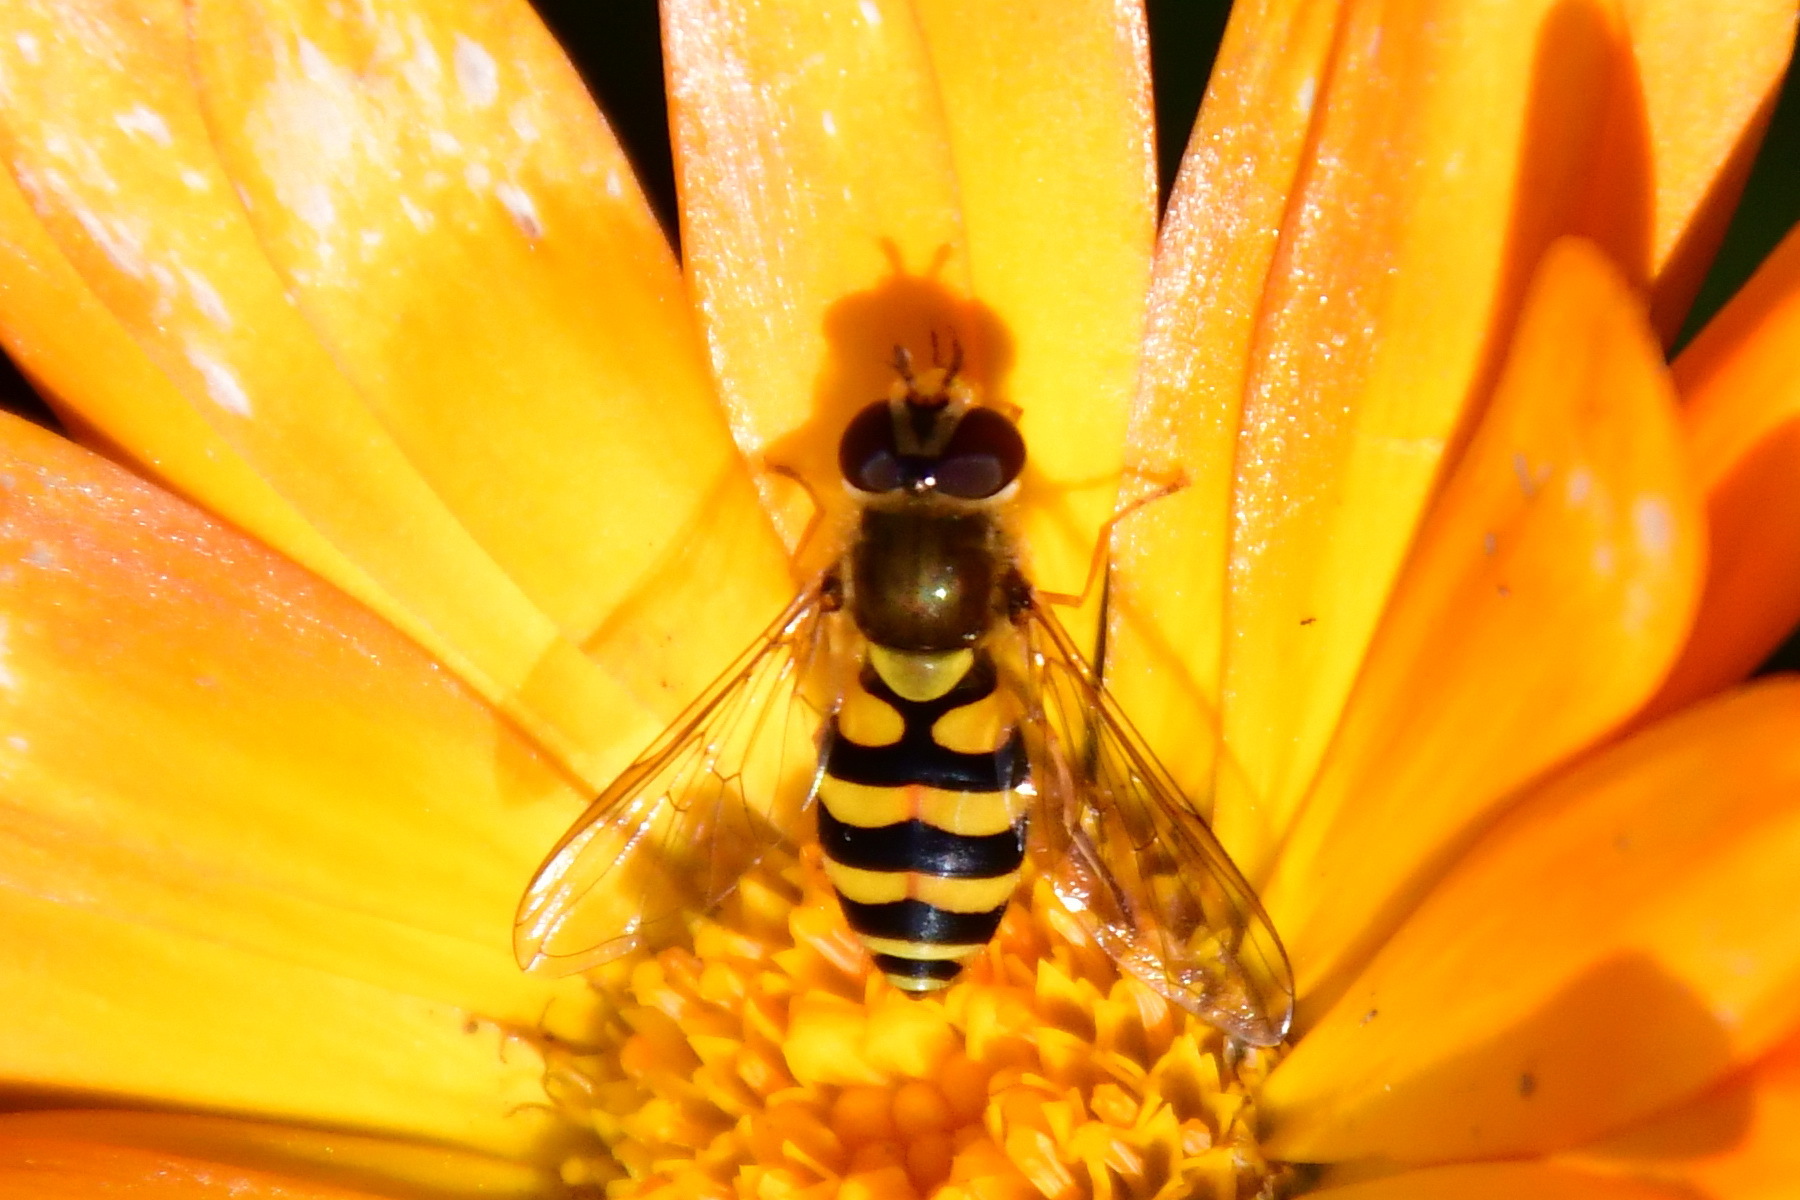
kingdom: Animalia
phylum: Arthropoda
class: Insecta
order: Diptera
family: Syrphidae
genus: Syrphus
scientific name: Syrphus
